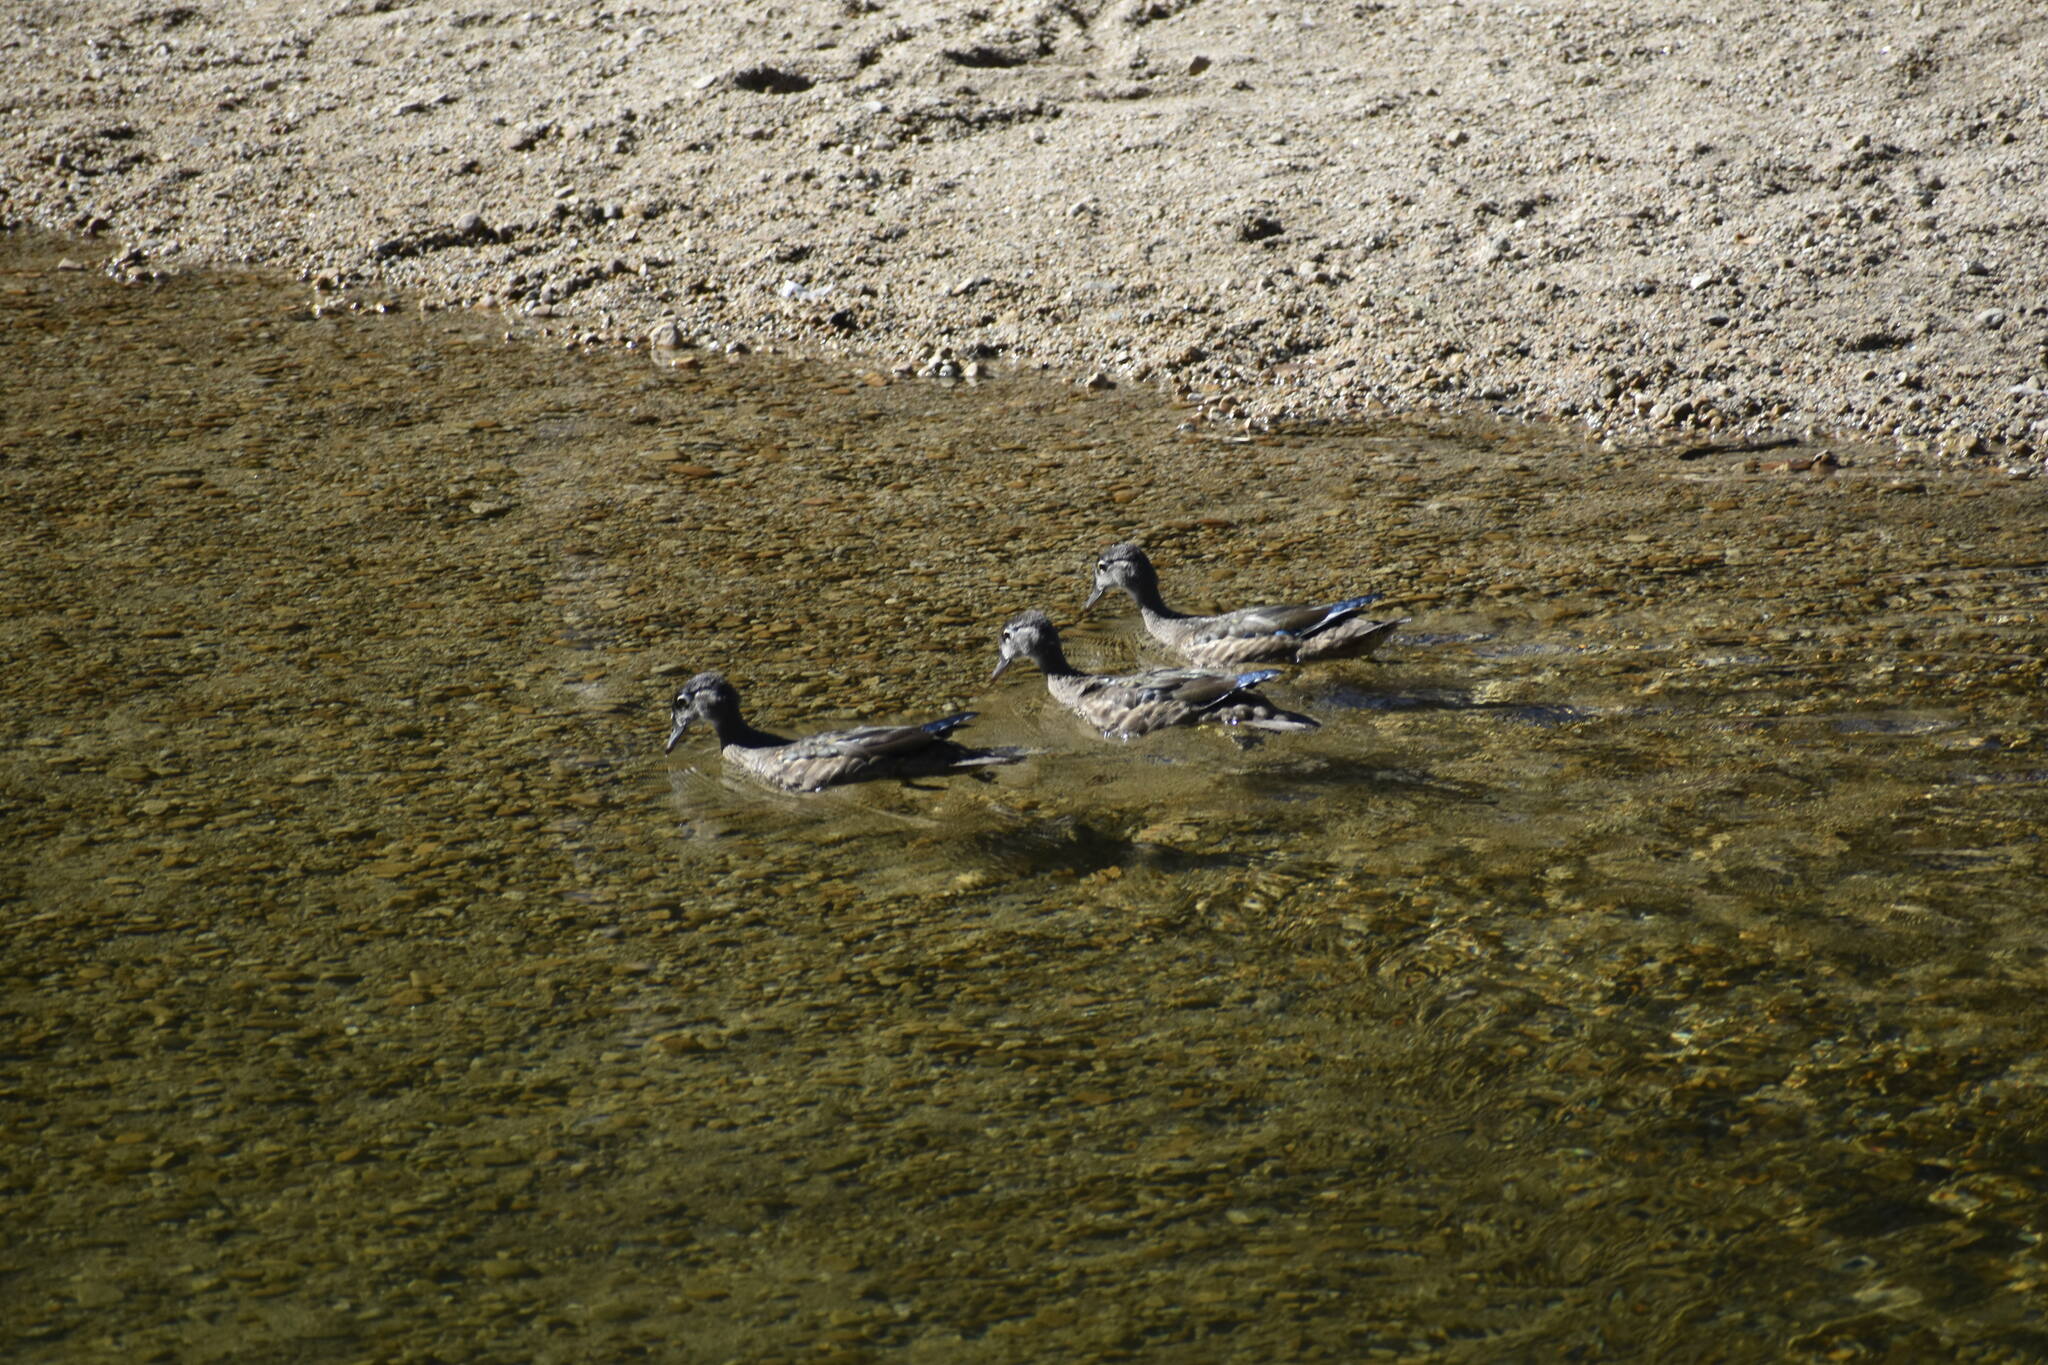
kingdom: Animalia
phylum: Chordata
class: Aves
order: Anseriformes
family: Anatidae
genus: Aix
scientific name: Aix sponsa
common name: Wood duck
